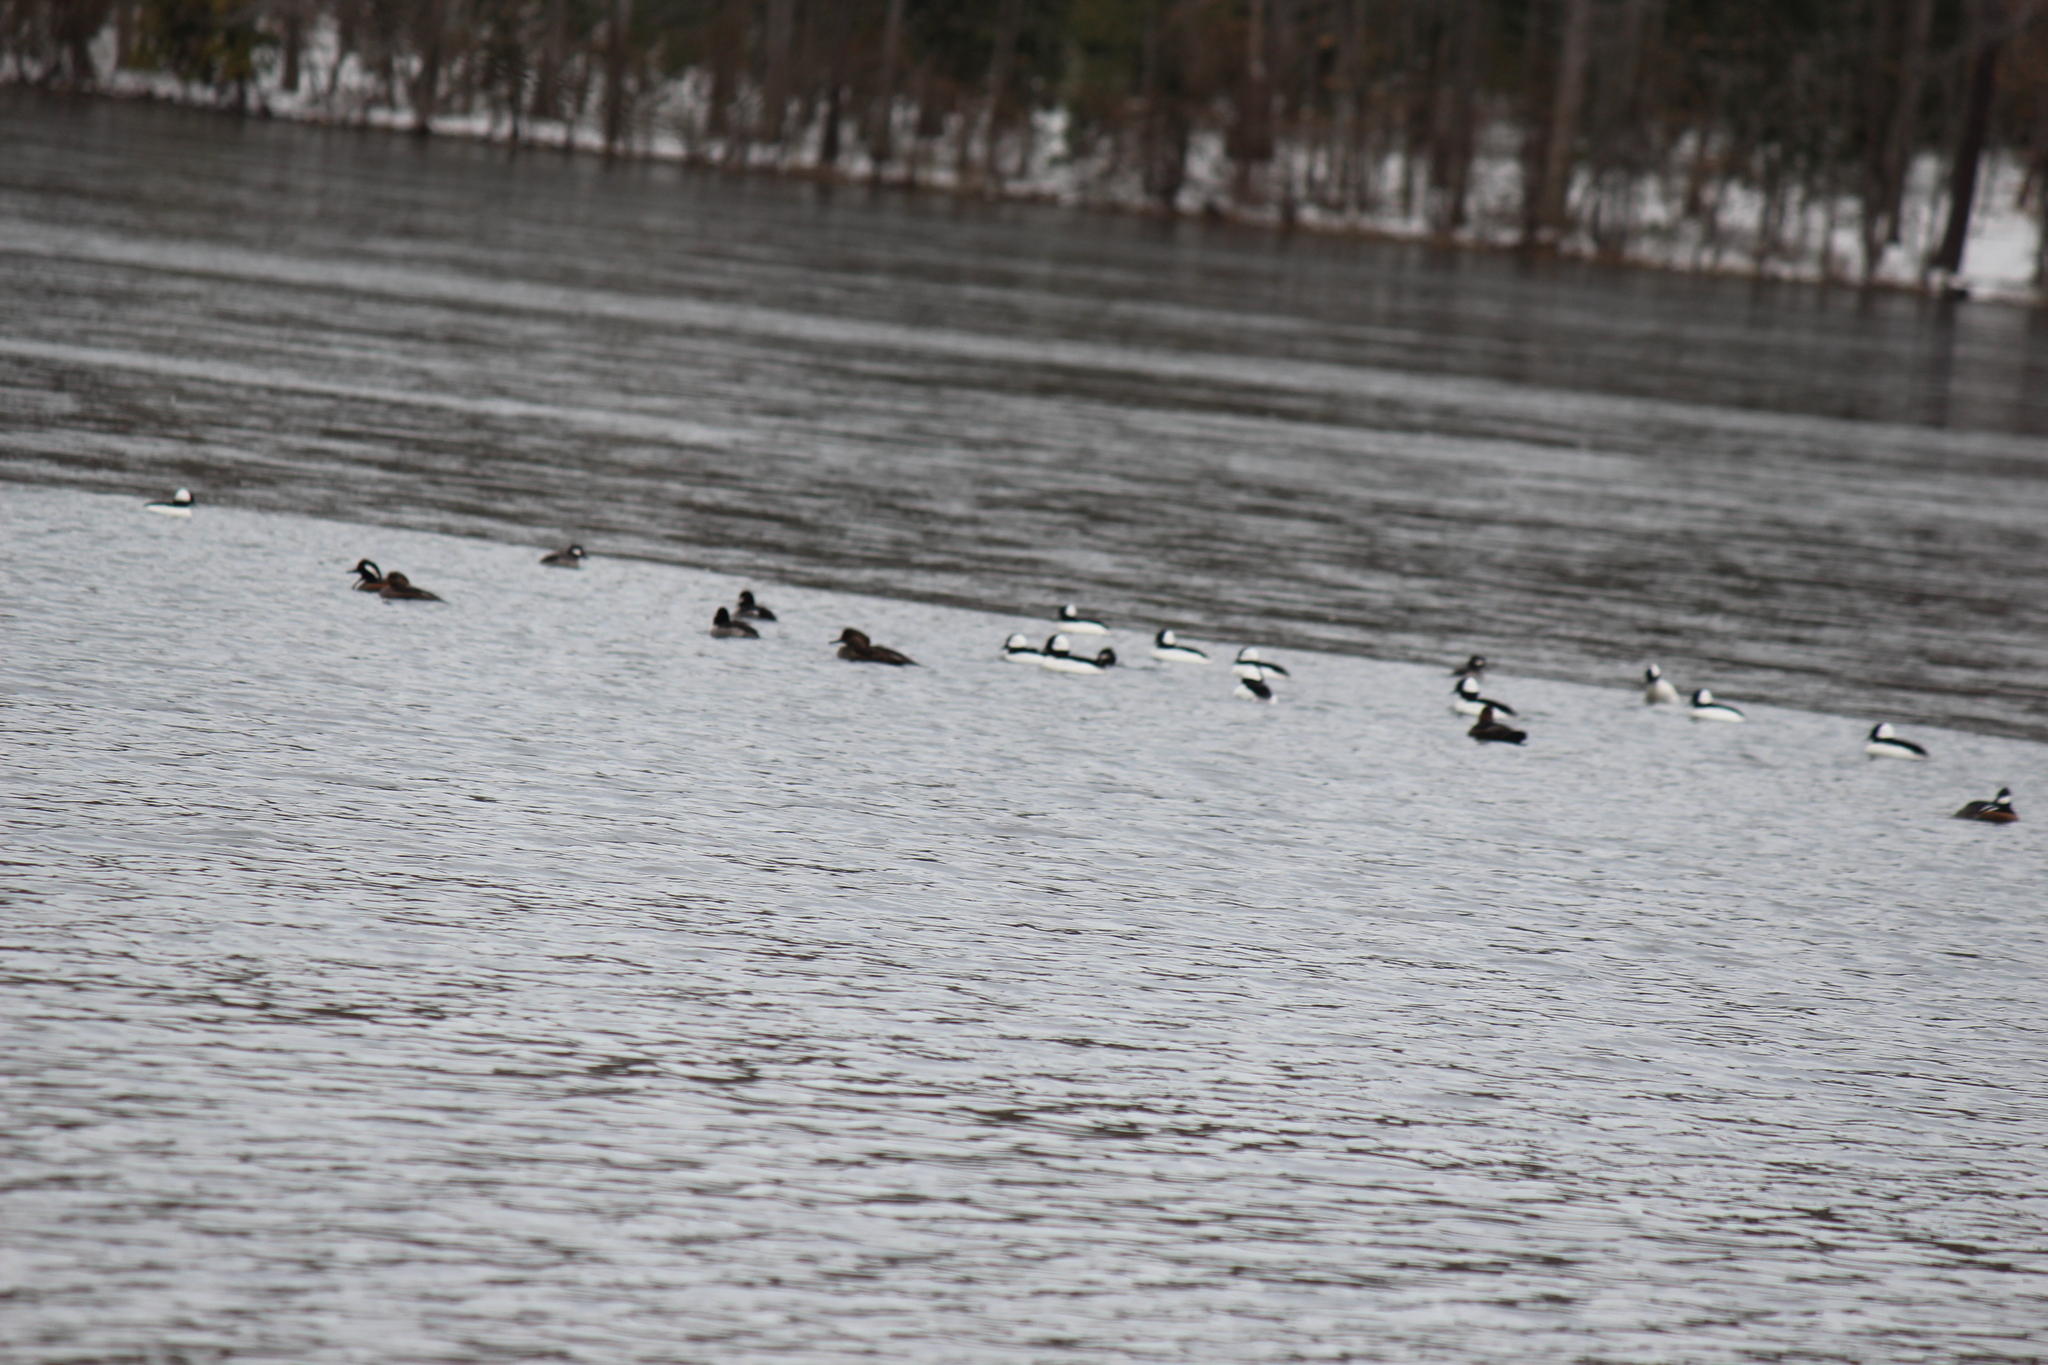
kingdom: Animalia
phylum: Chordata
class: Aves
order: Anseriformes
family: Anatidae
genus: Bucephala
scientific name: Bucephala albeola
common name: Bufflehead
